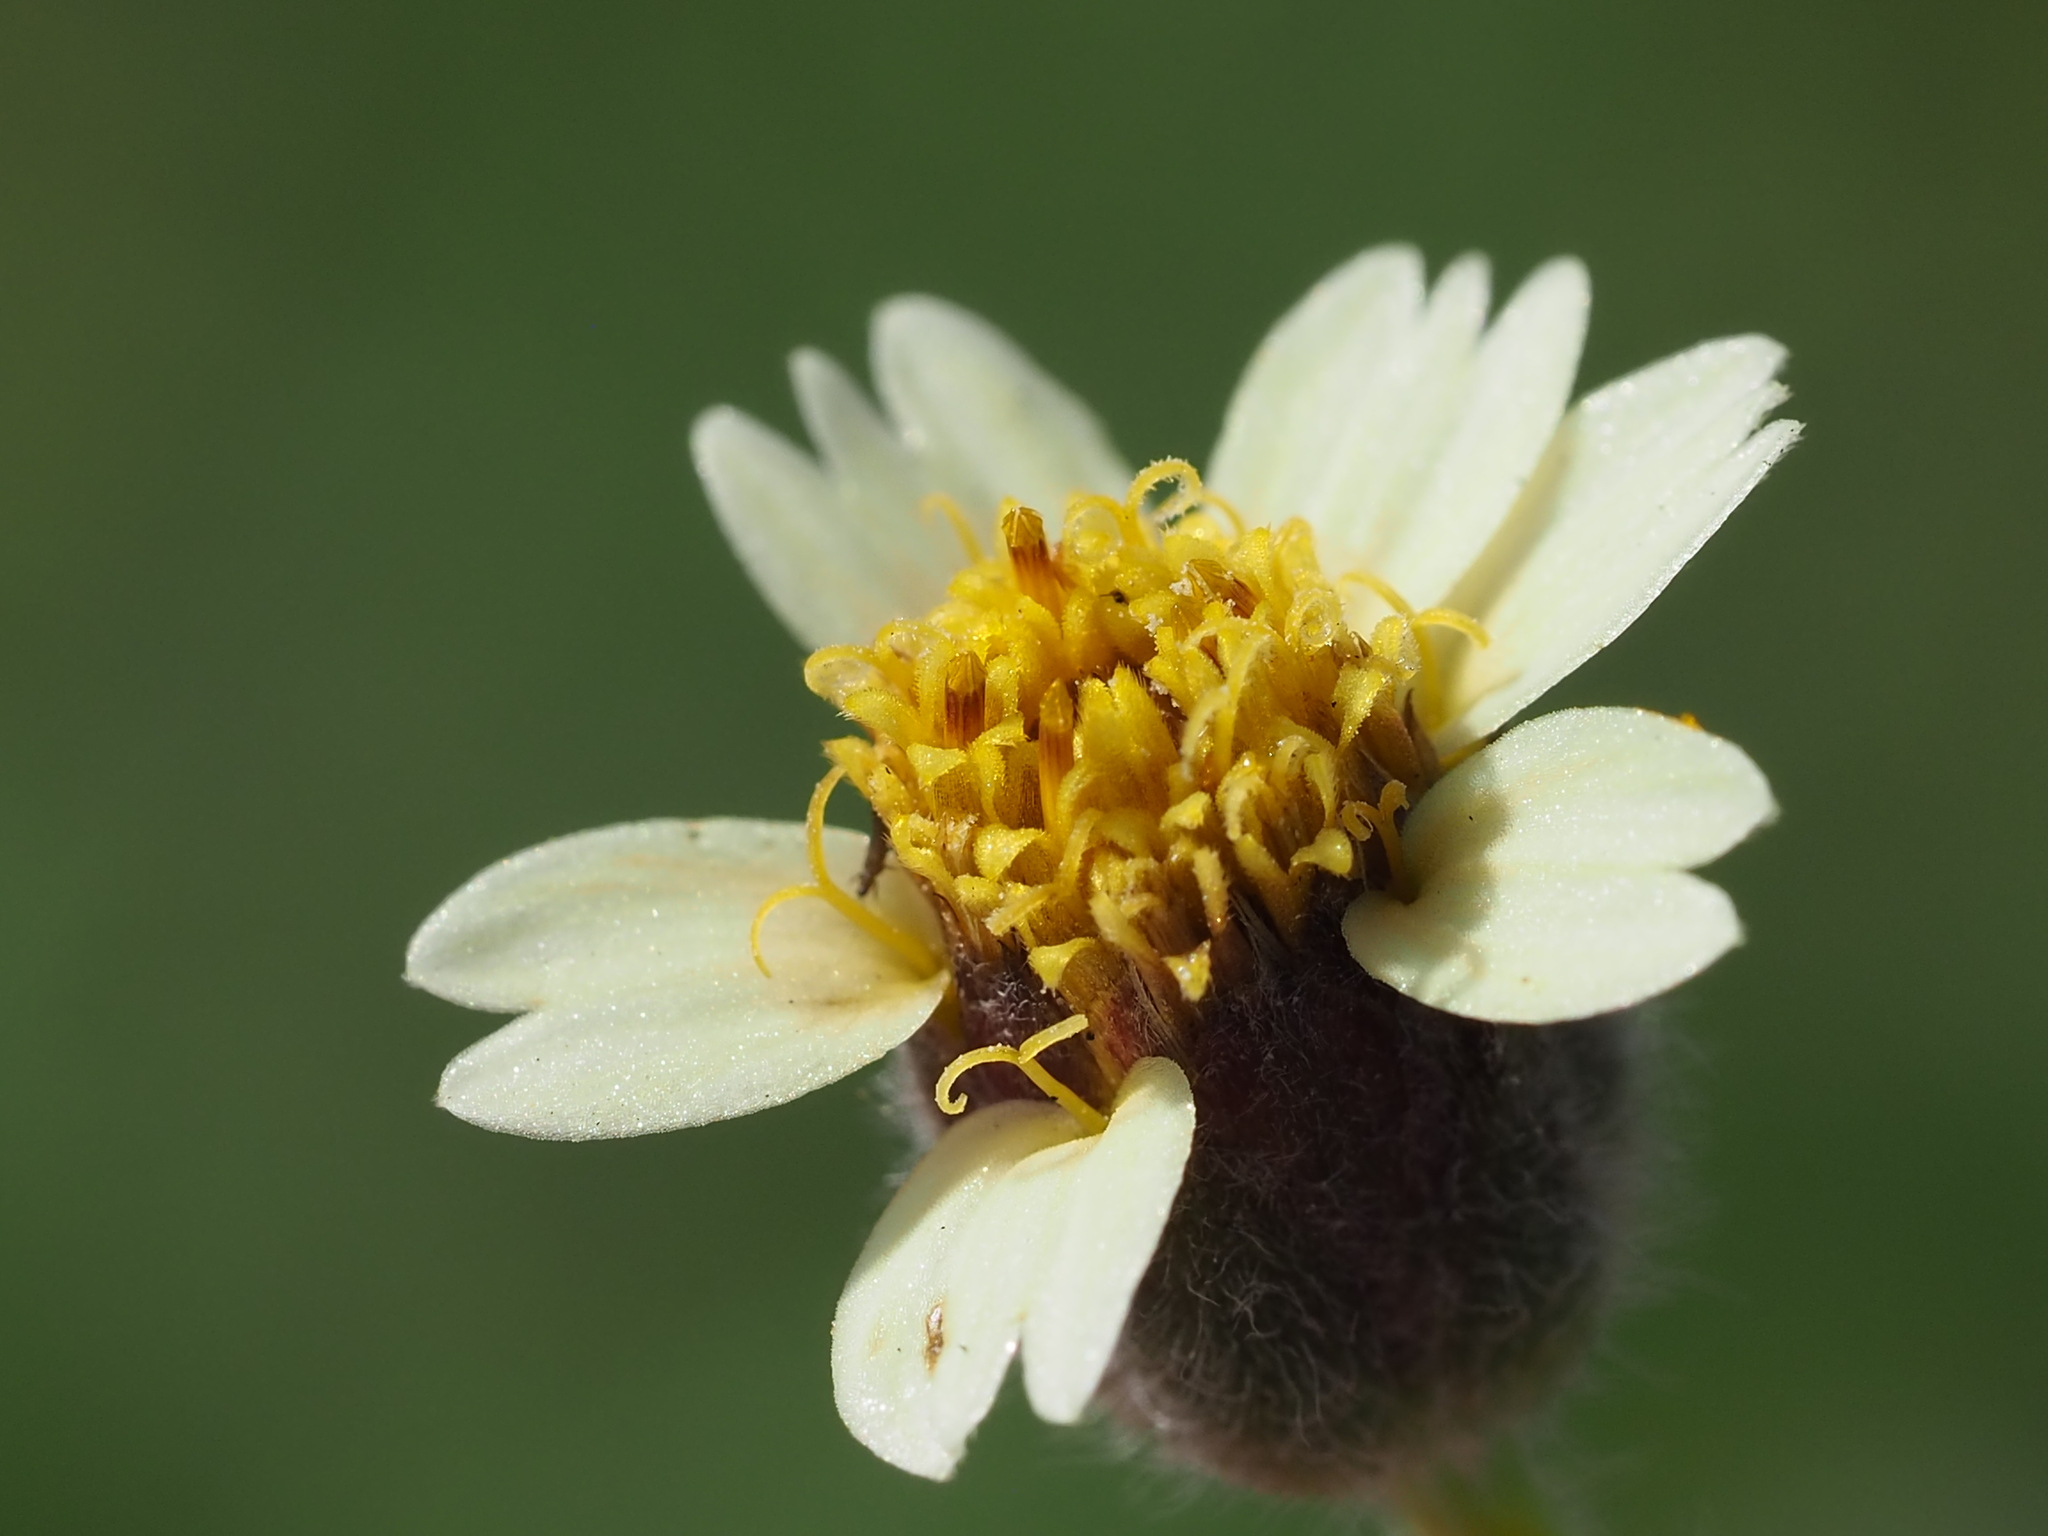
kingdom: Plantae
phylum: Tracheophyta
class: Magnoliopsida
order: Asterales
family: Asteraceae
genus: Tridax
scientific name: Tridax procumbens
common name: Coatbuttons
